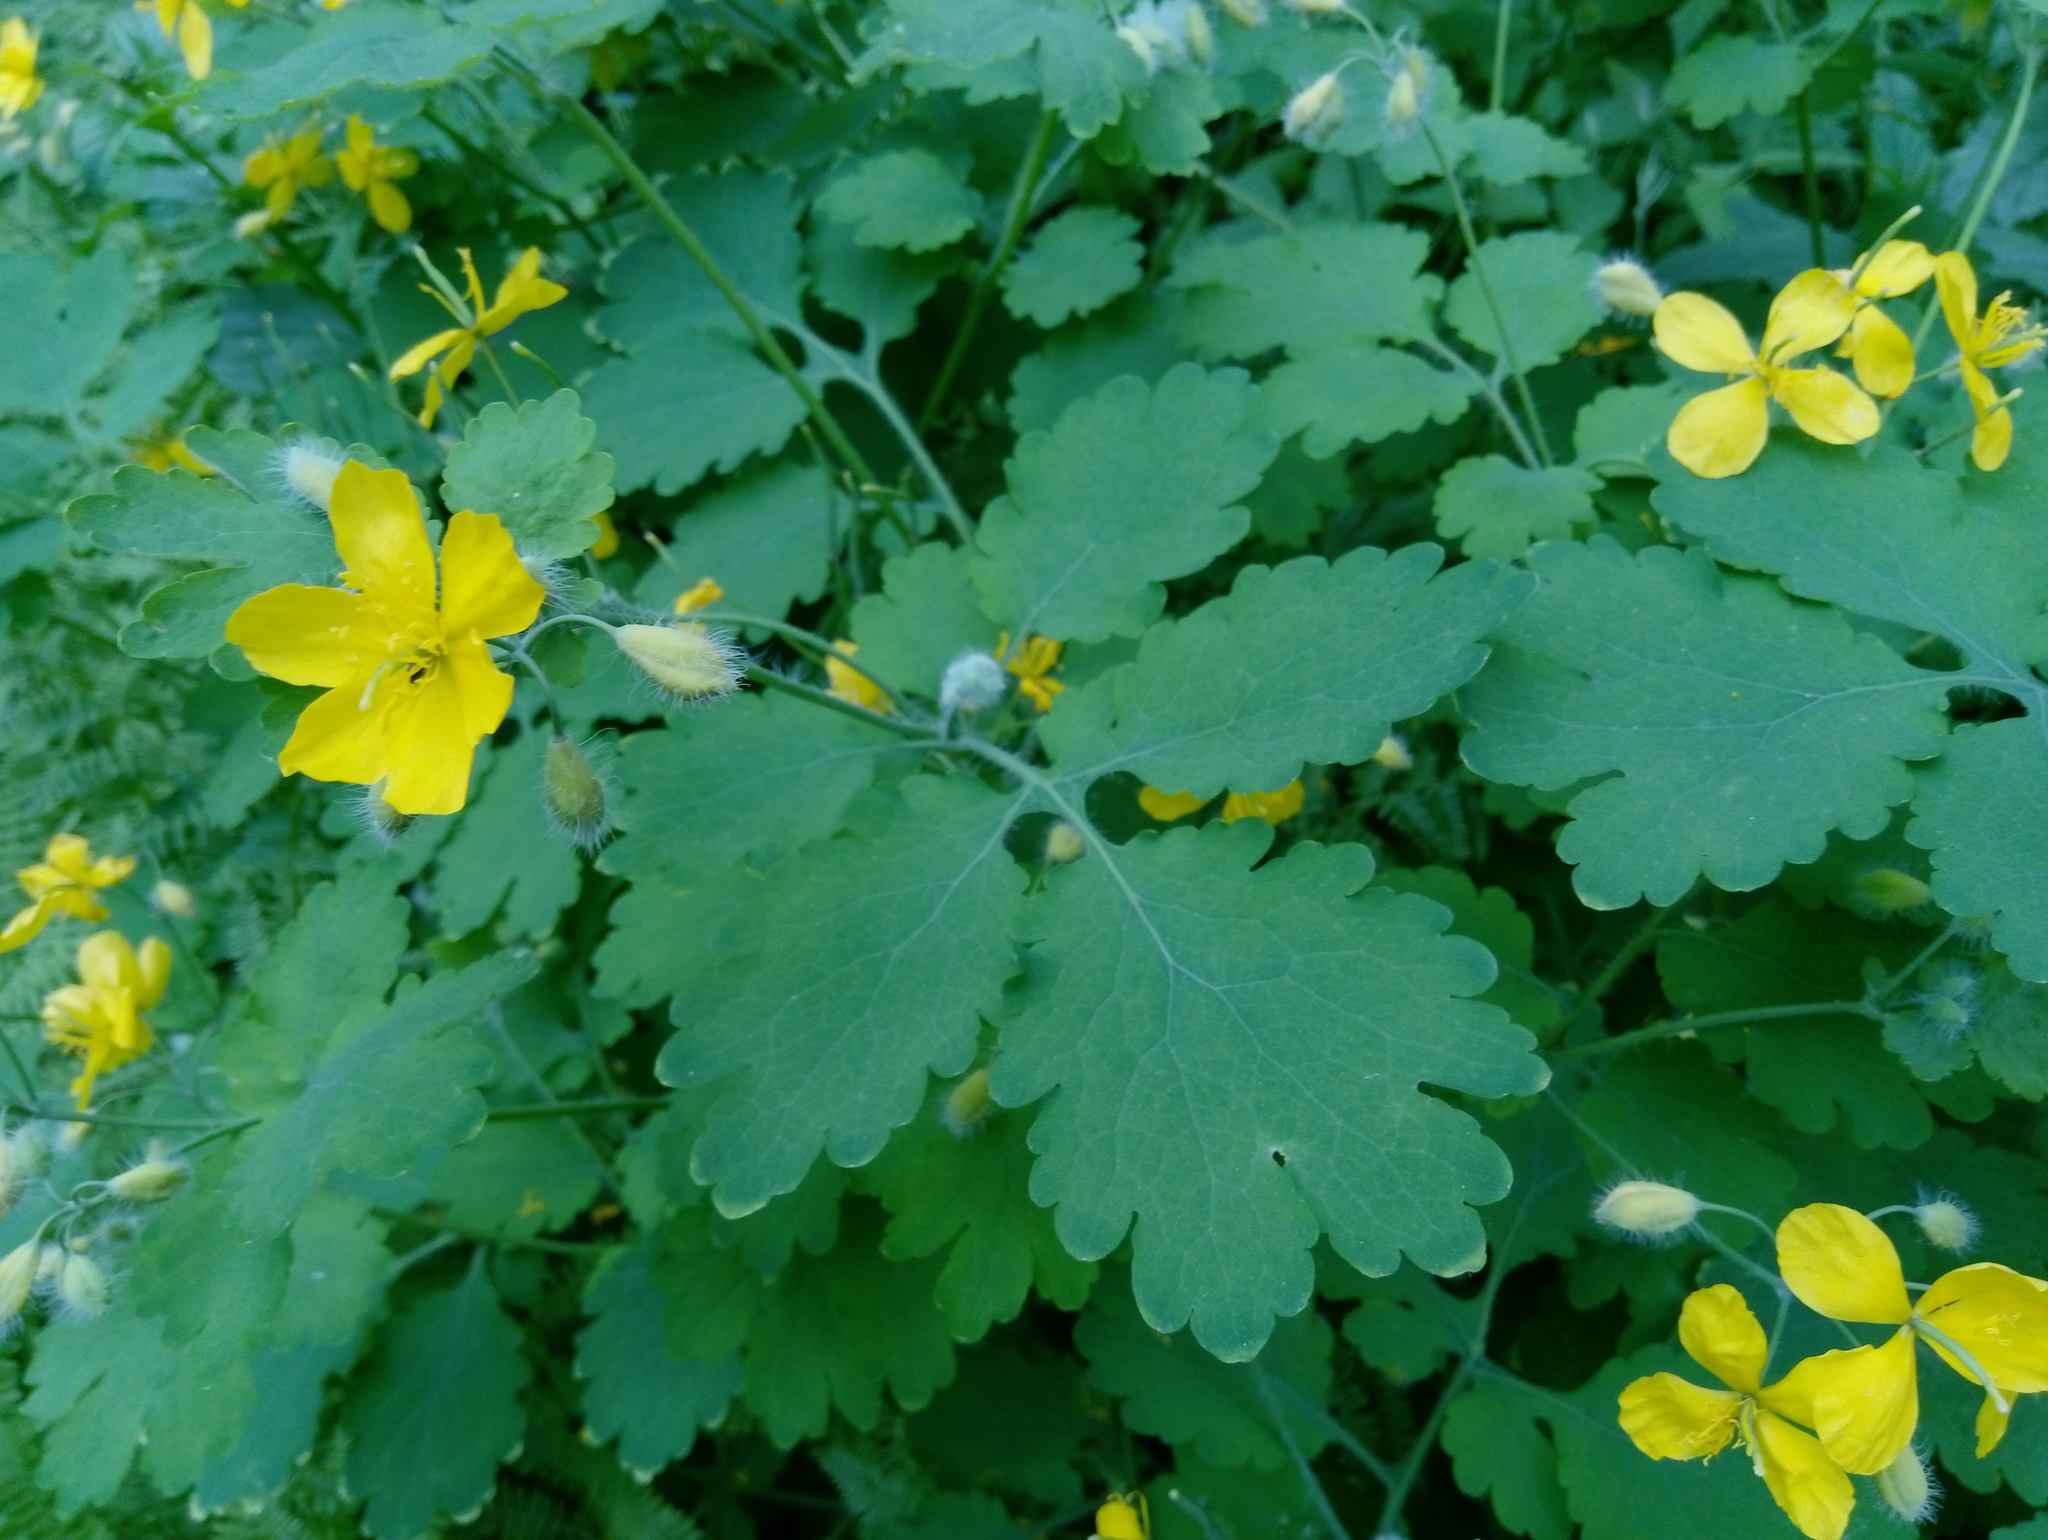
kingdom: Plantae
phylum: Tracheophyta
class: Magnoliopsida
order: Ranunculales
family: Papaveraceae
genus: Chelidonium
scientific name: Chelidonium majus
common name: Greater celandine
